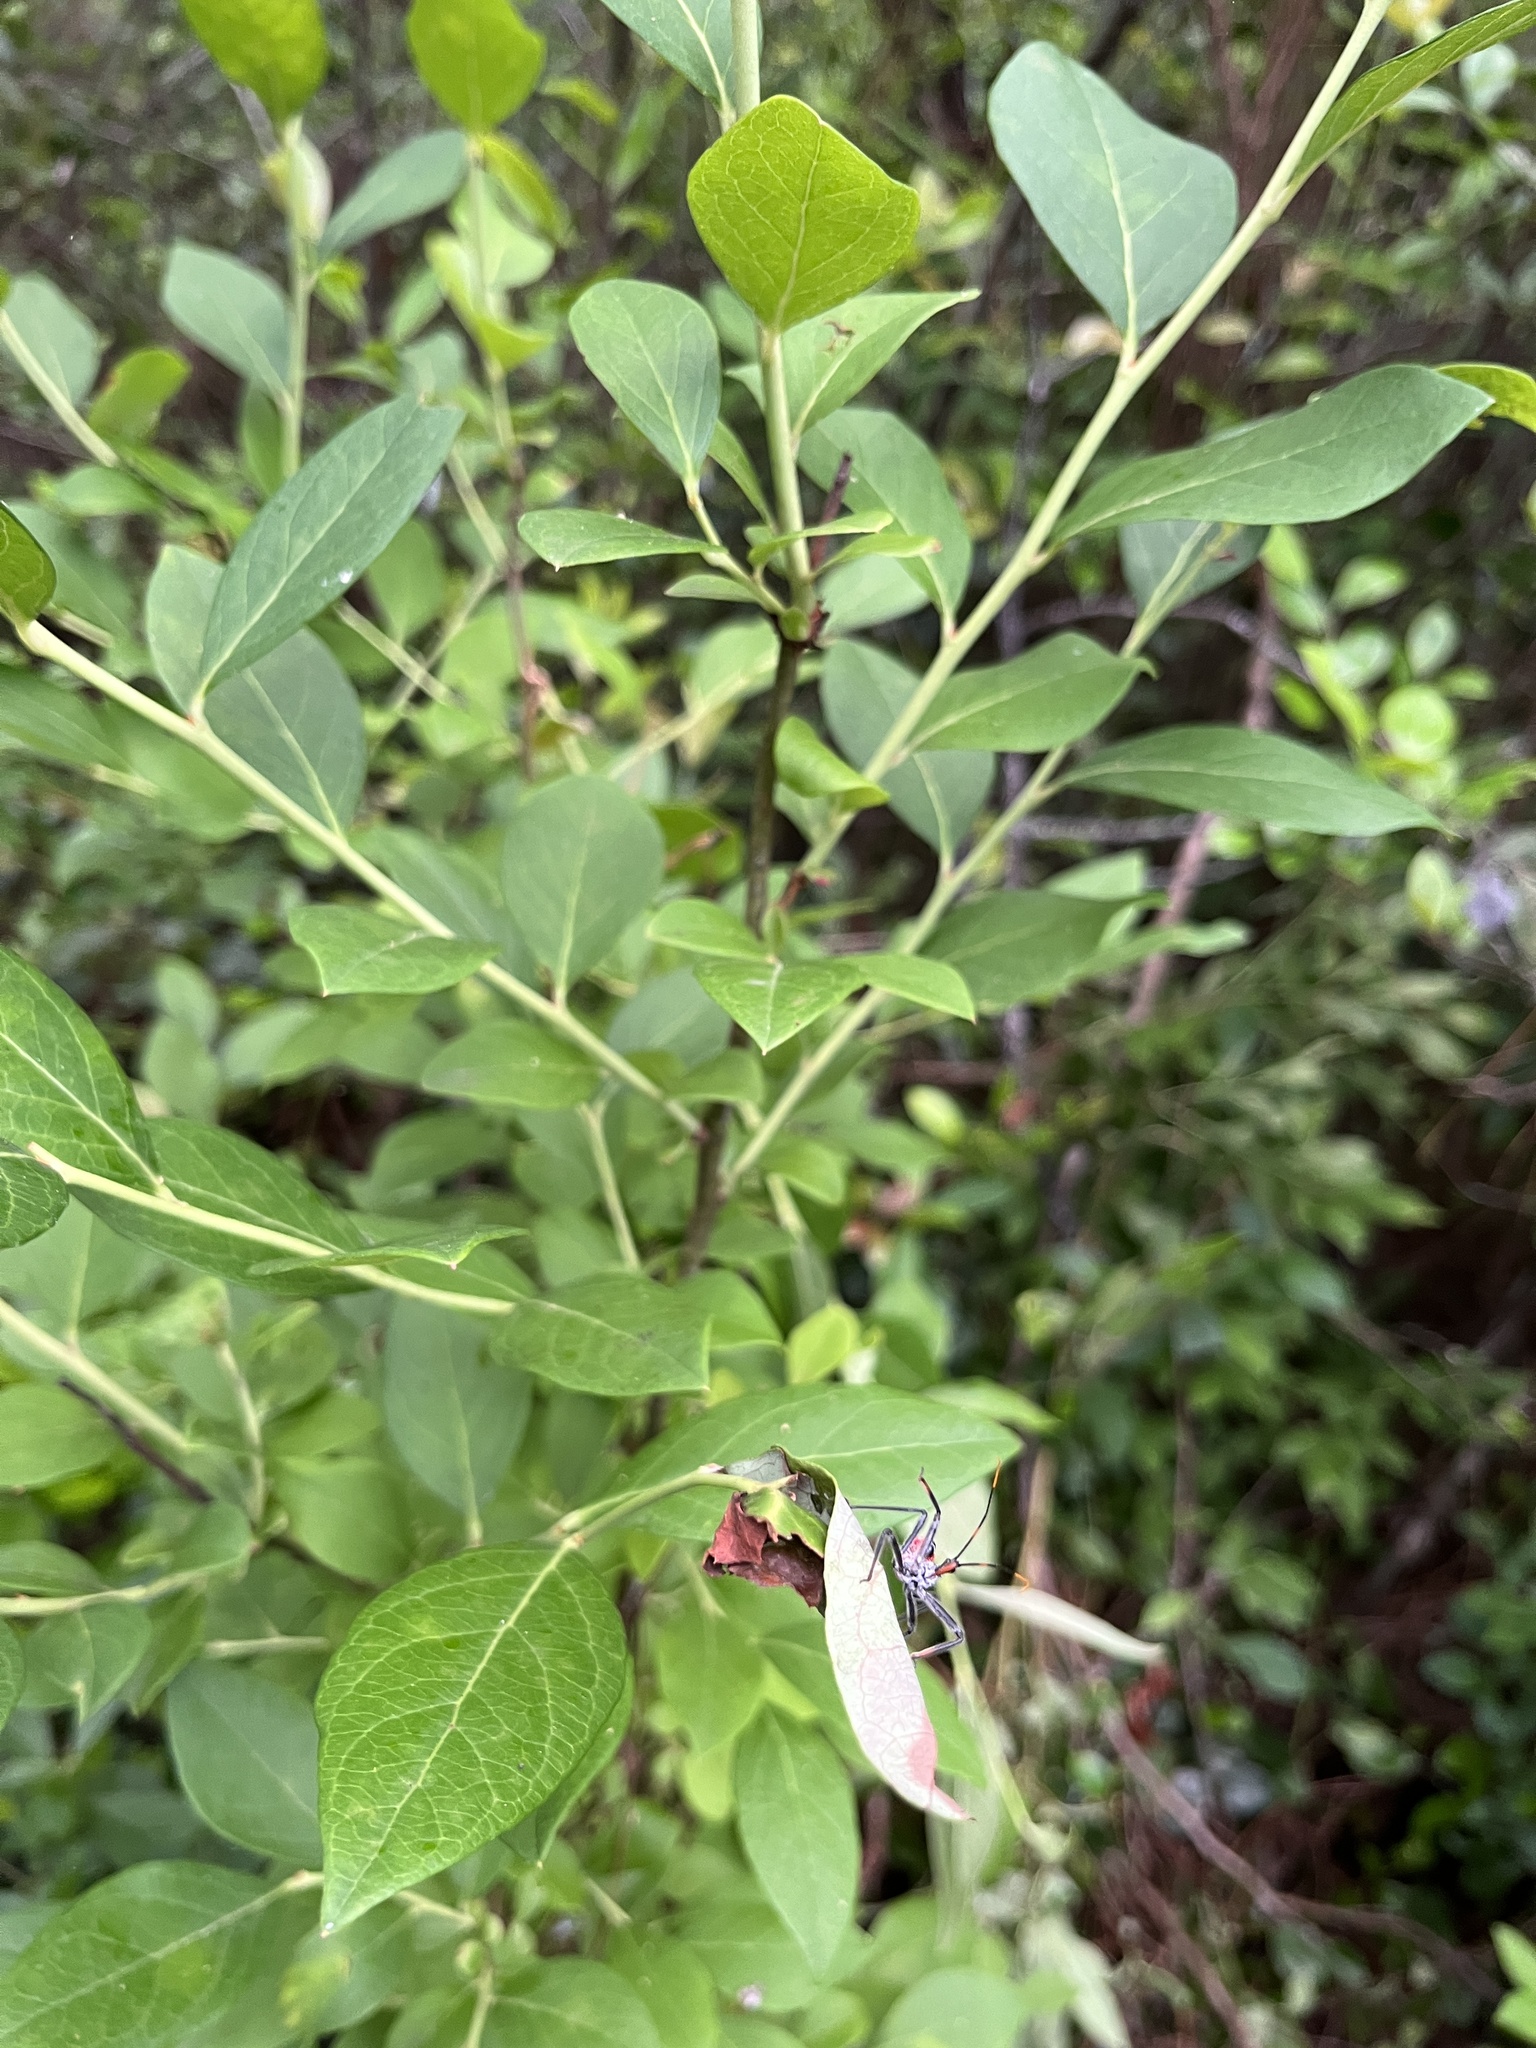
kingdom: Animalia
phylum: Arthropoda
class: Insecta
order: Hemiptera
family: Reduviidae
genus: Arilus
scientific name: Arilus cristatus
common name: North american wheel bug
